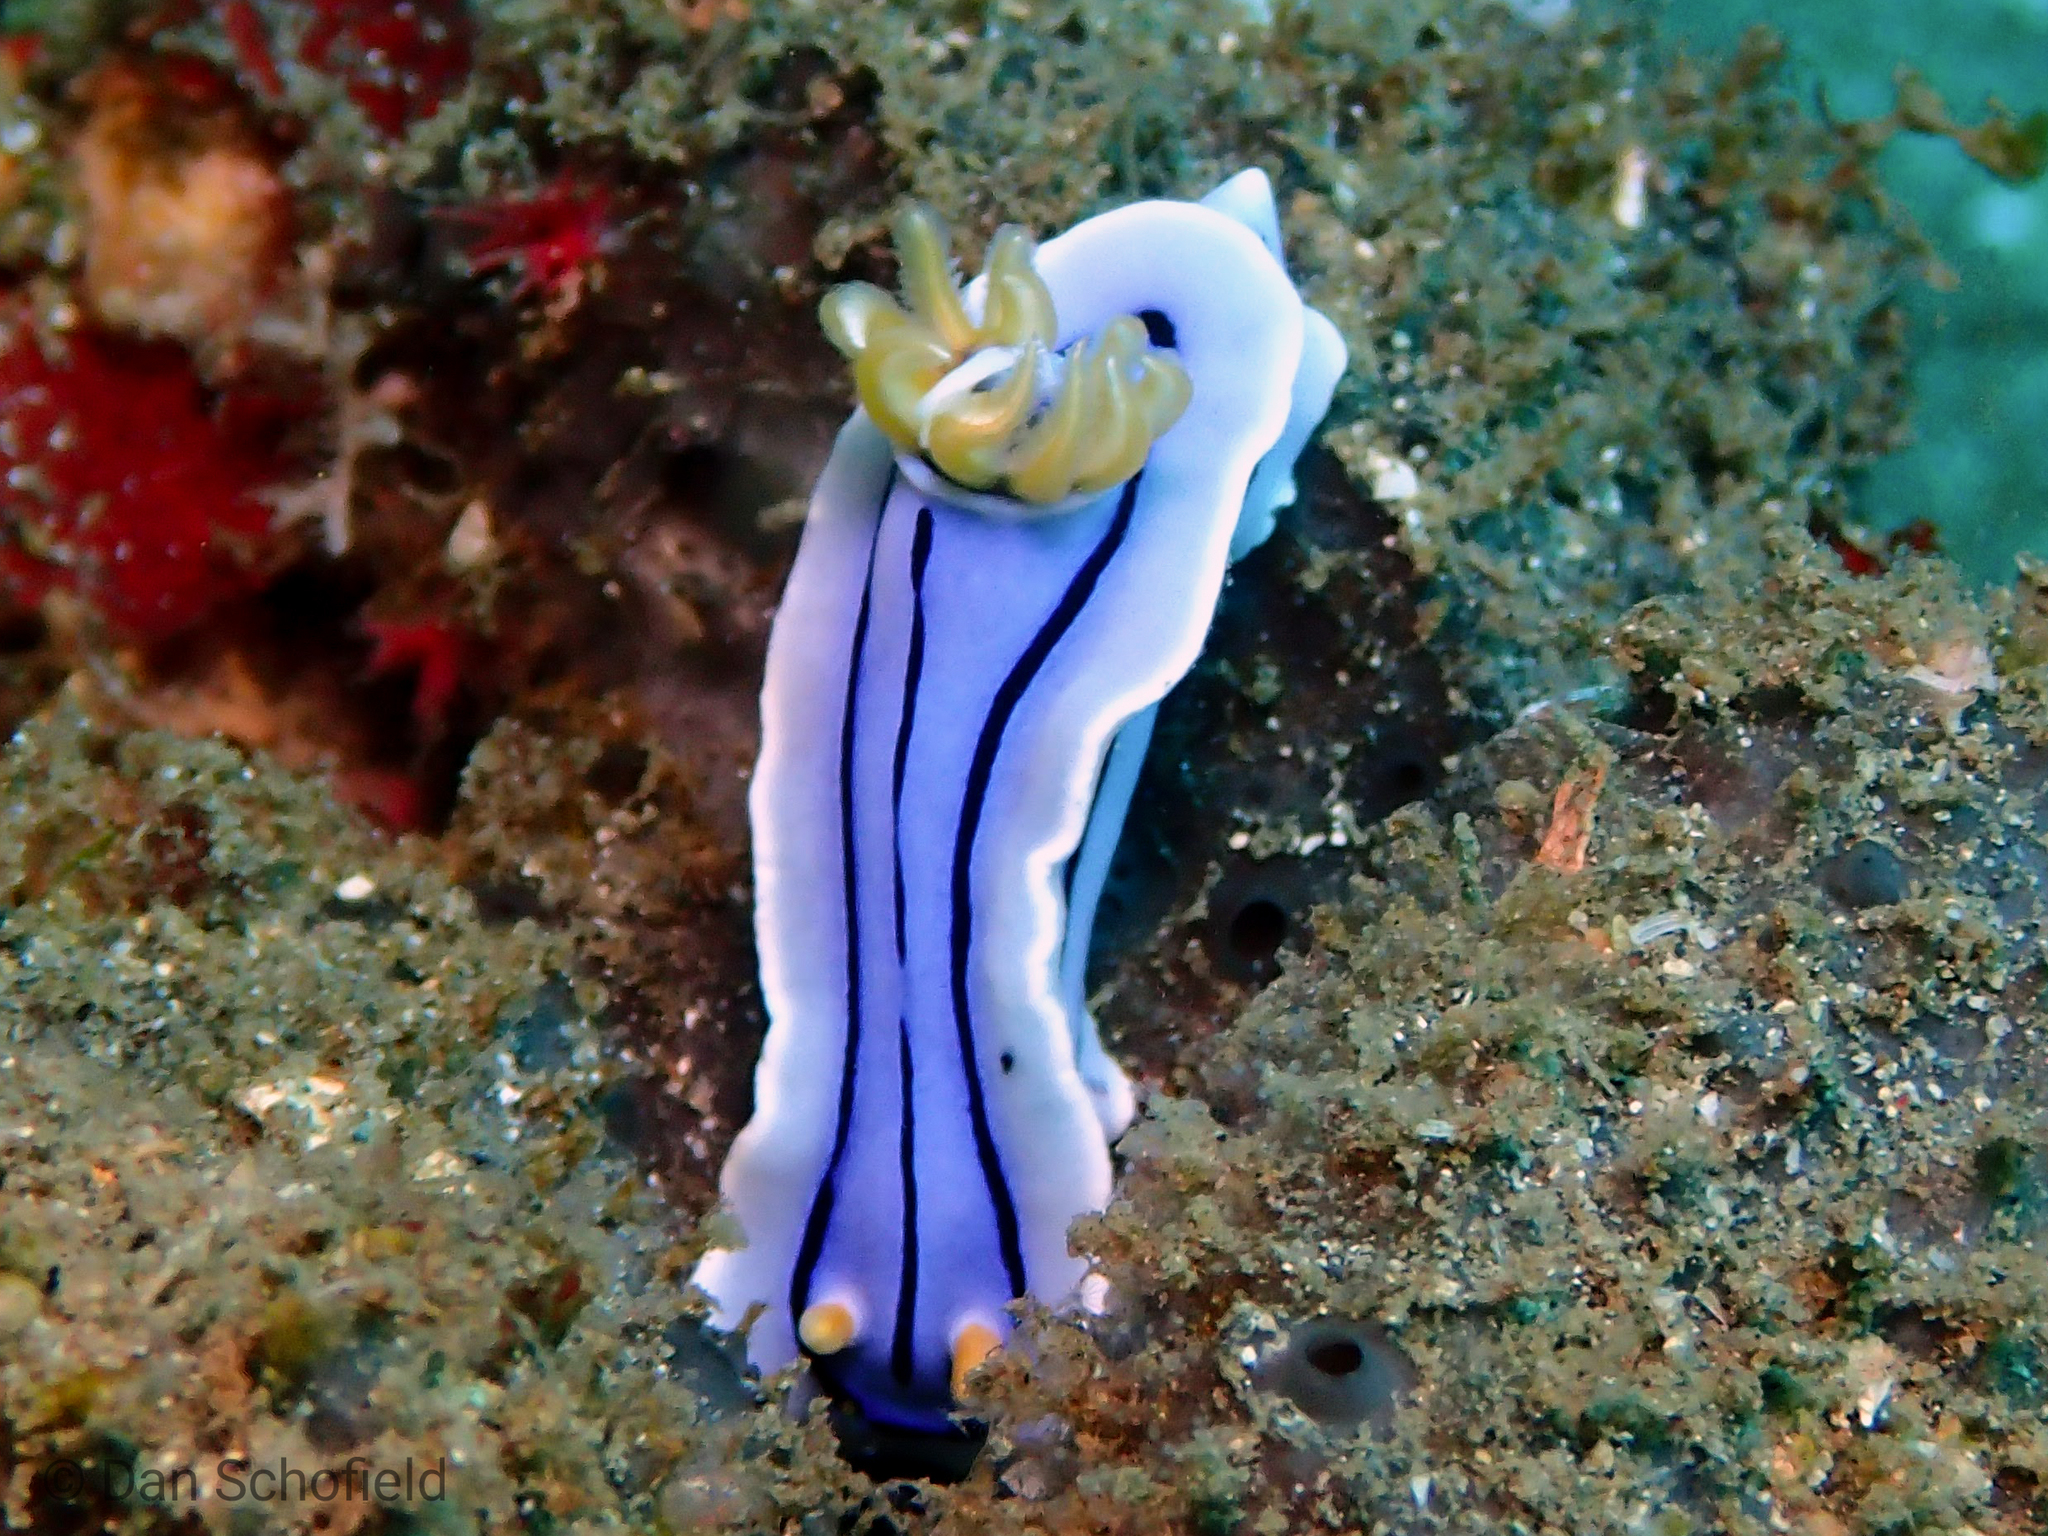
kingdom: Animalia
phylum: Mollusca
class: Gastropoda
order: Nudibranchia
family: Chromodorididae
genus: Chromodoris
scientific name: Chromodoris lochi
